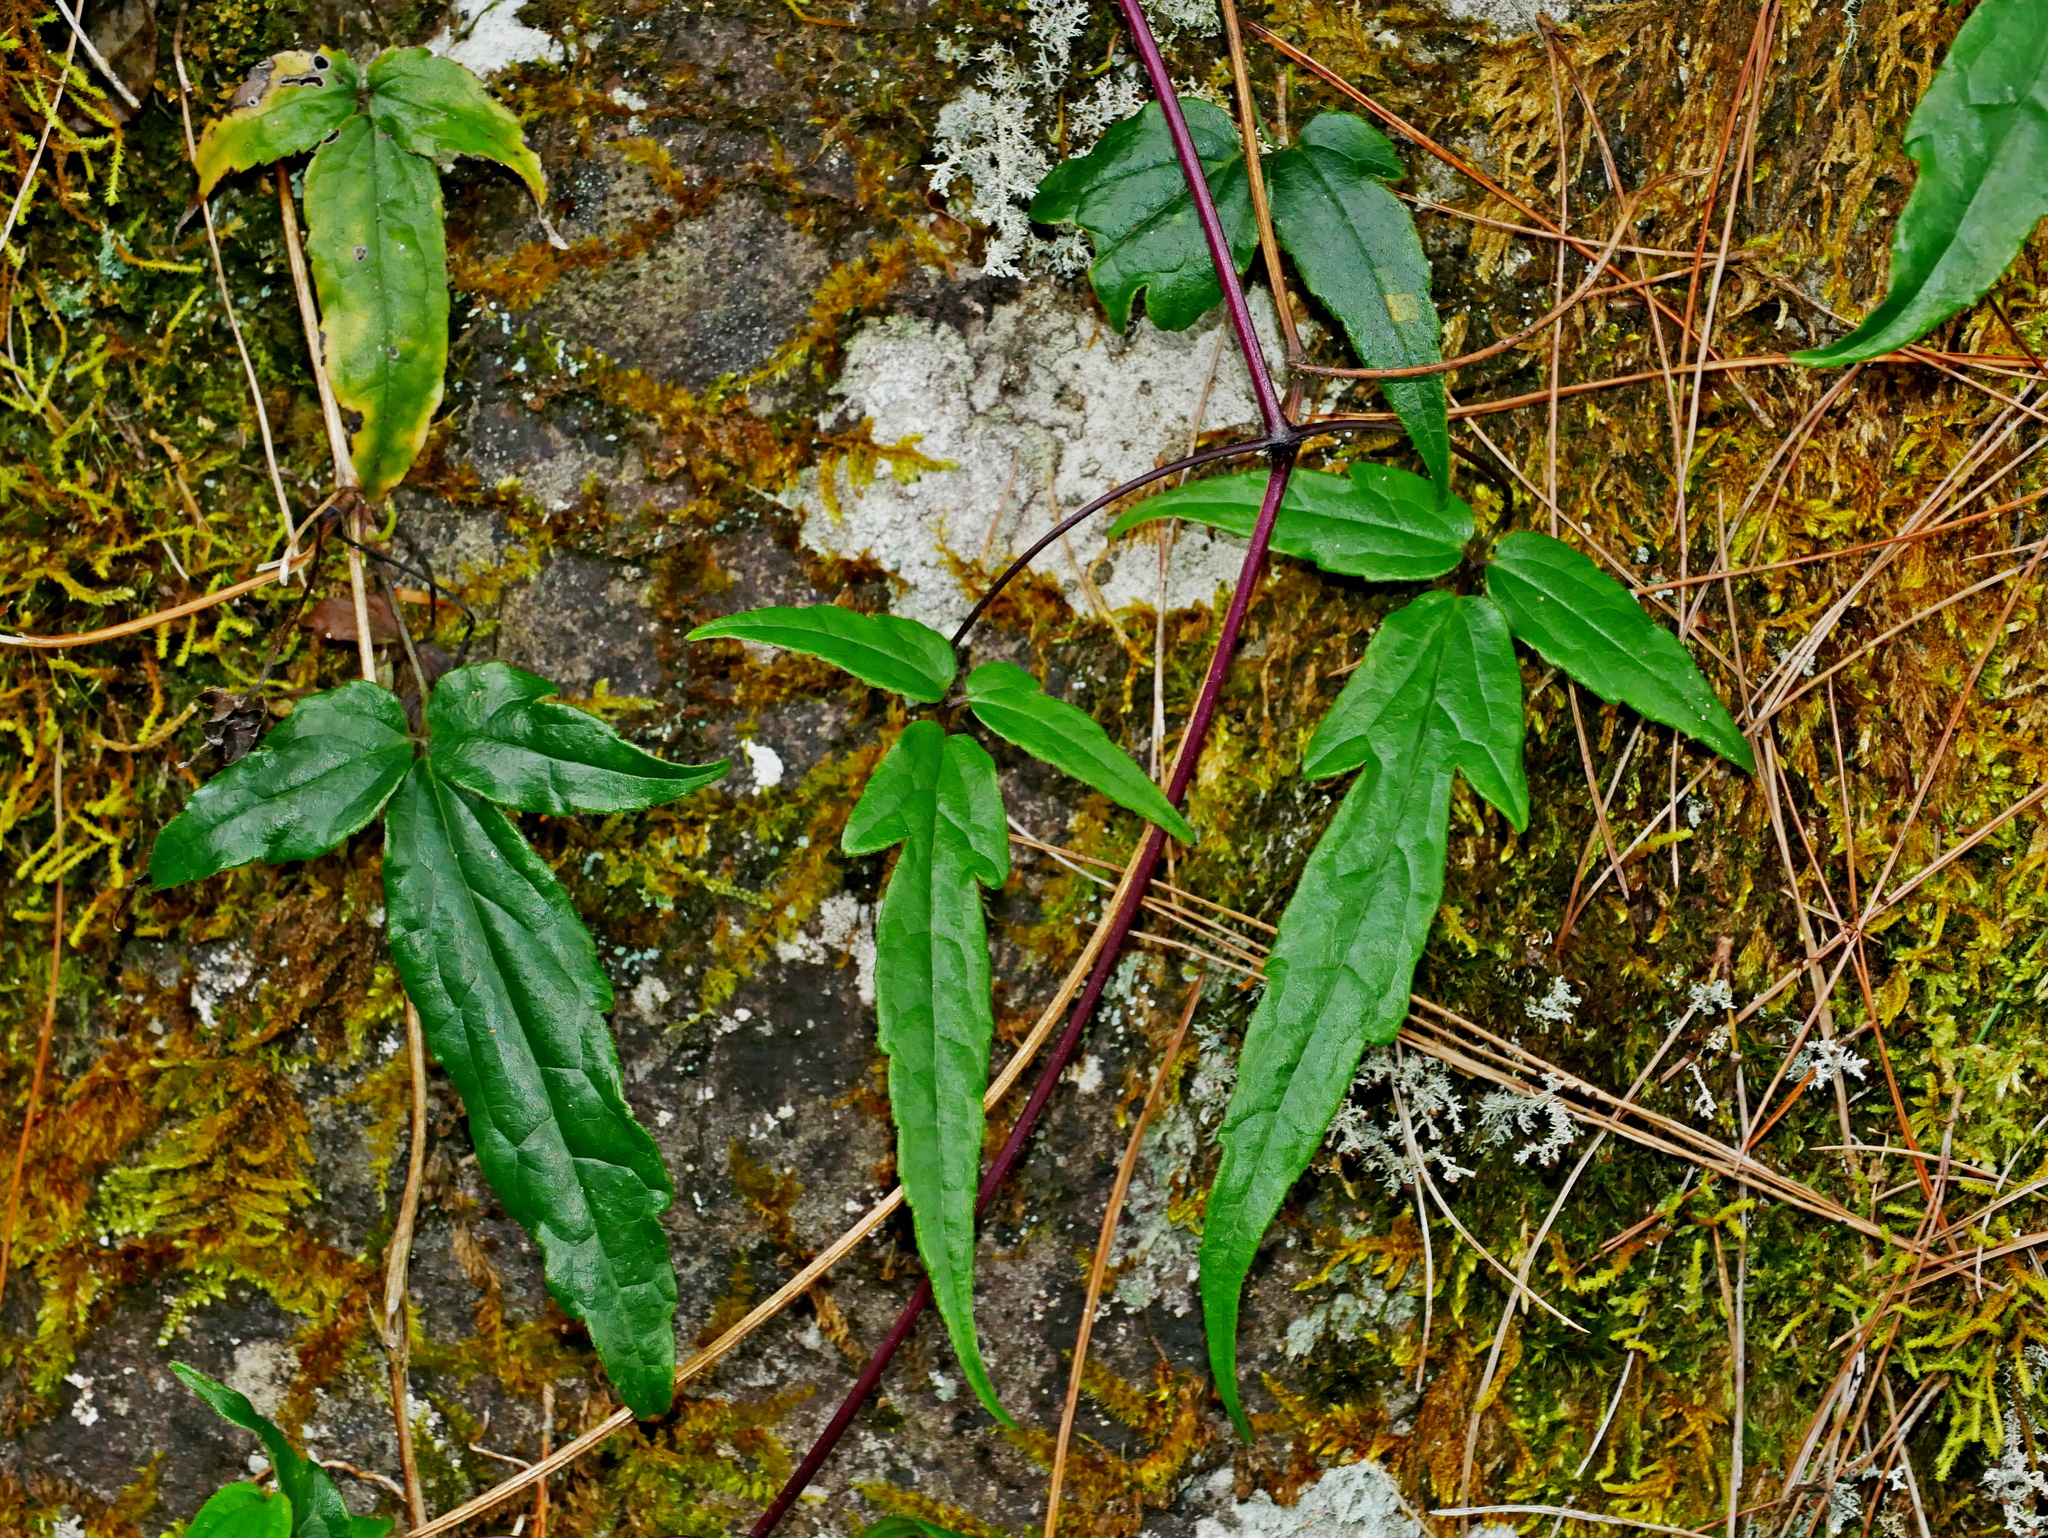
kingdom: Plantae
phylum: Tracheophyta
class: Magnoliopsida
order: Ranunculales
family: Ranunculaceae
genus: Clematis
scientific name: Clematis morii
